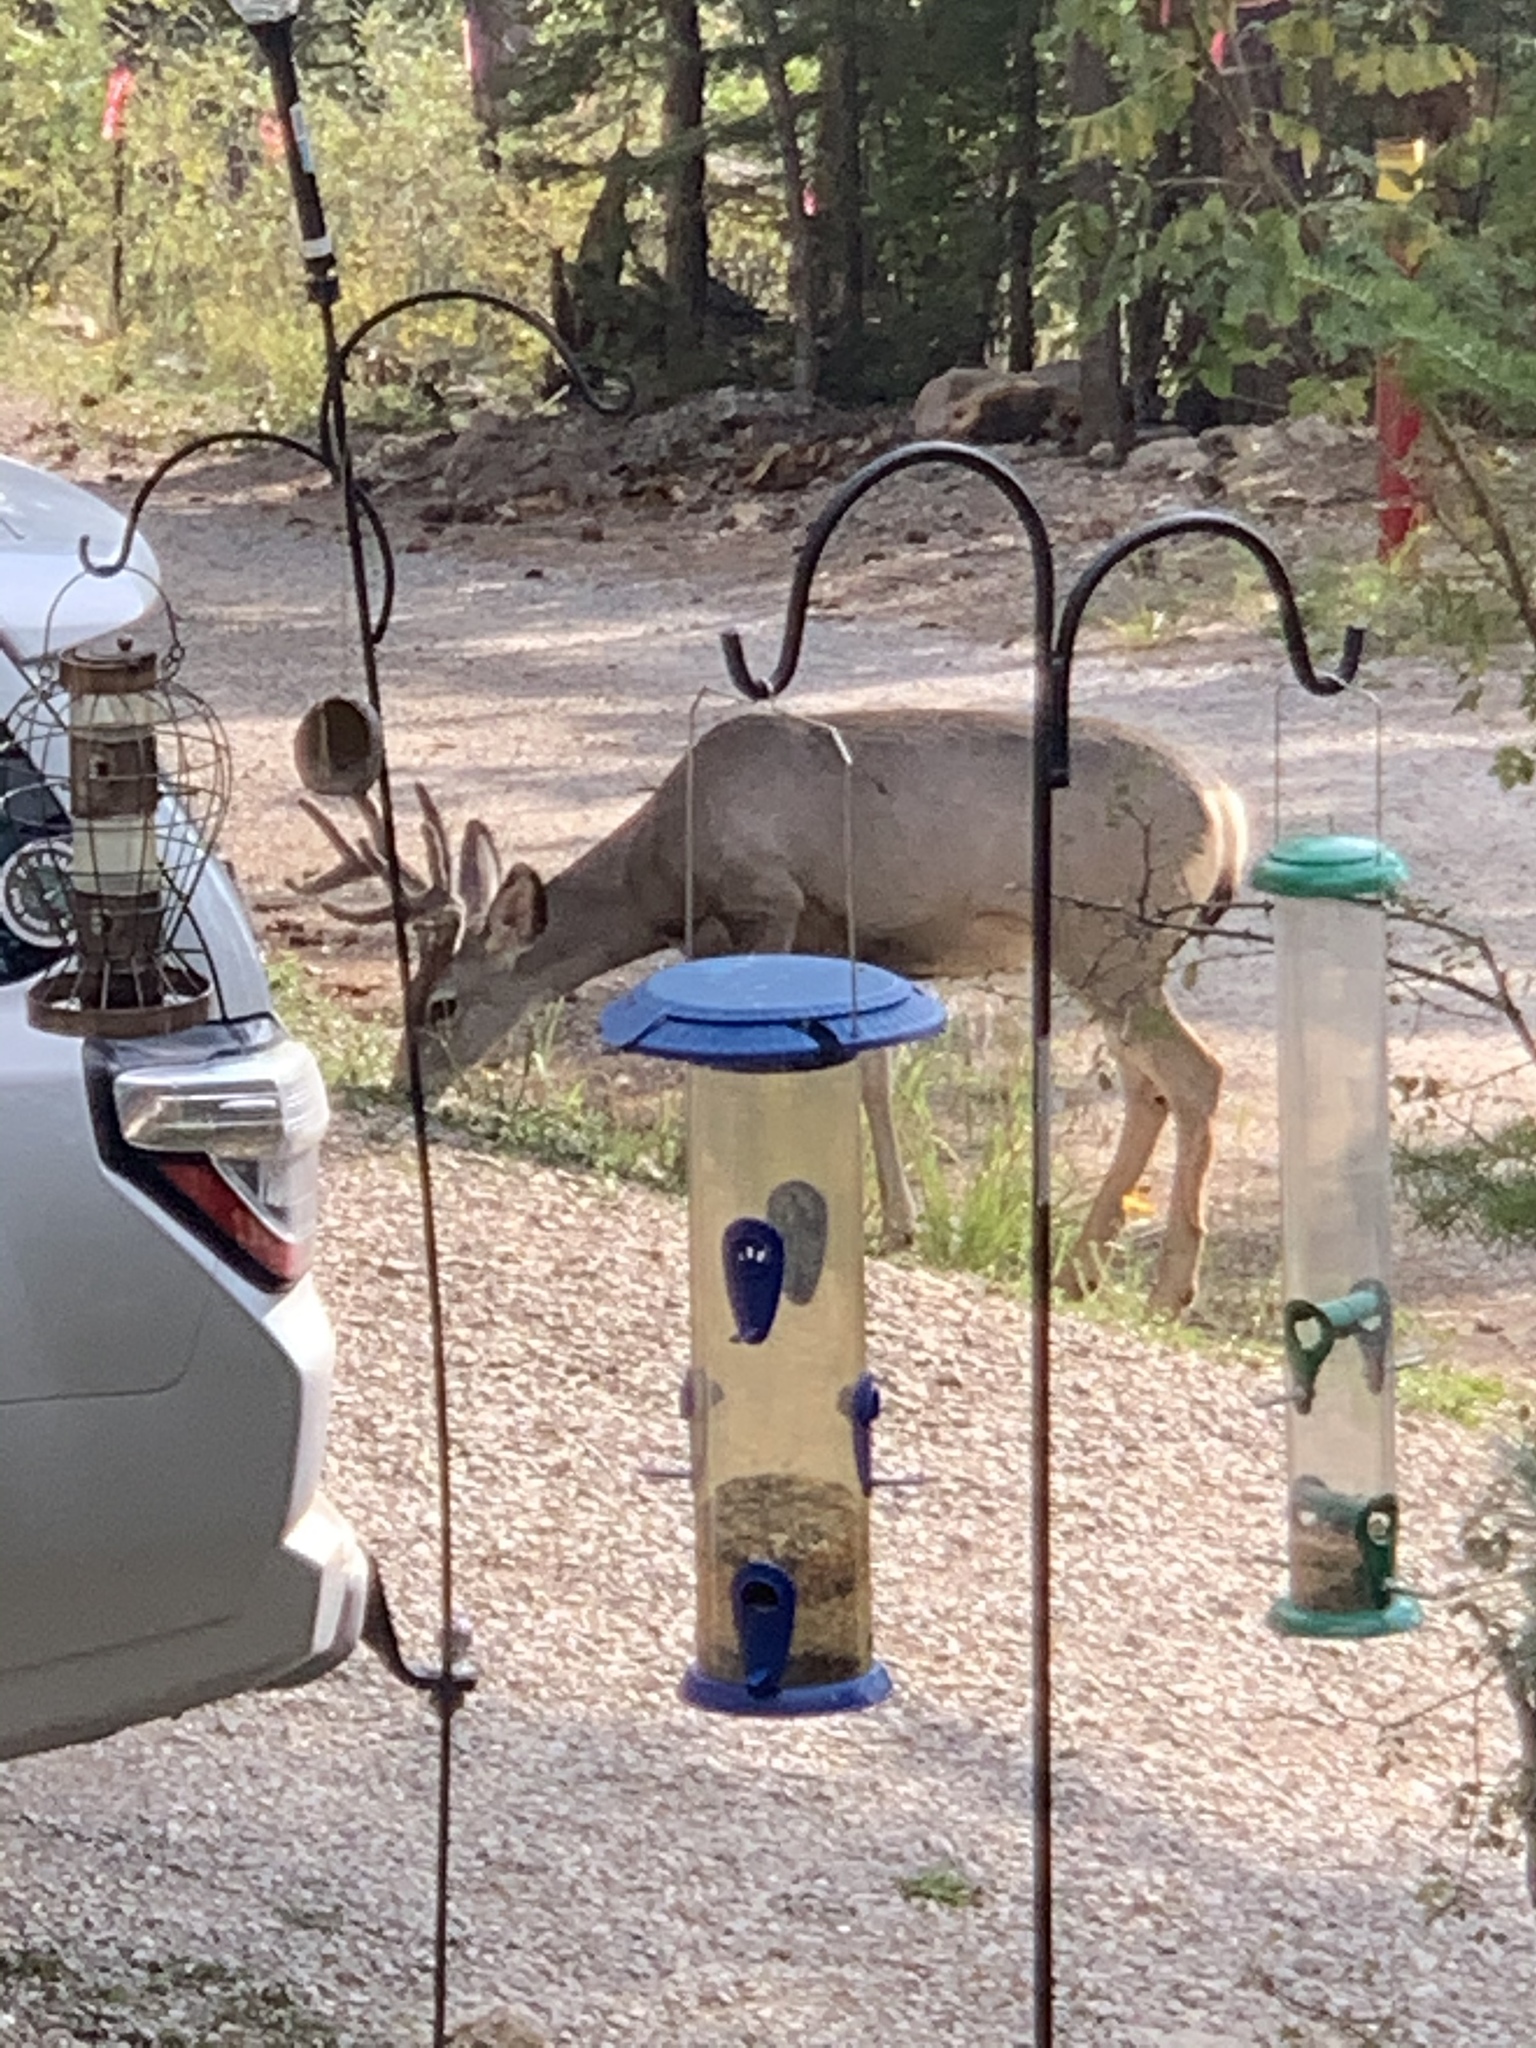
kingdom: Animalia
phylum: Chordata
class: Mammalia
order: Artiodactyla
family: Cervidae
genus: Odocoileus
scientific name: Odocoileus hemionus
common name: Mule deer
